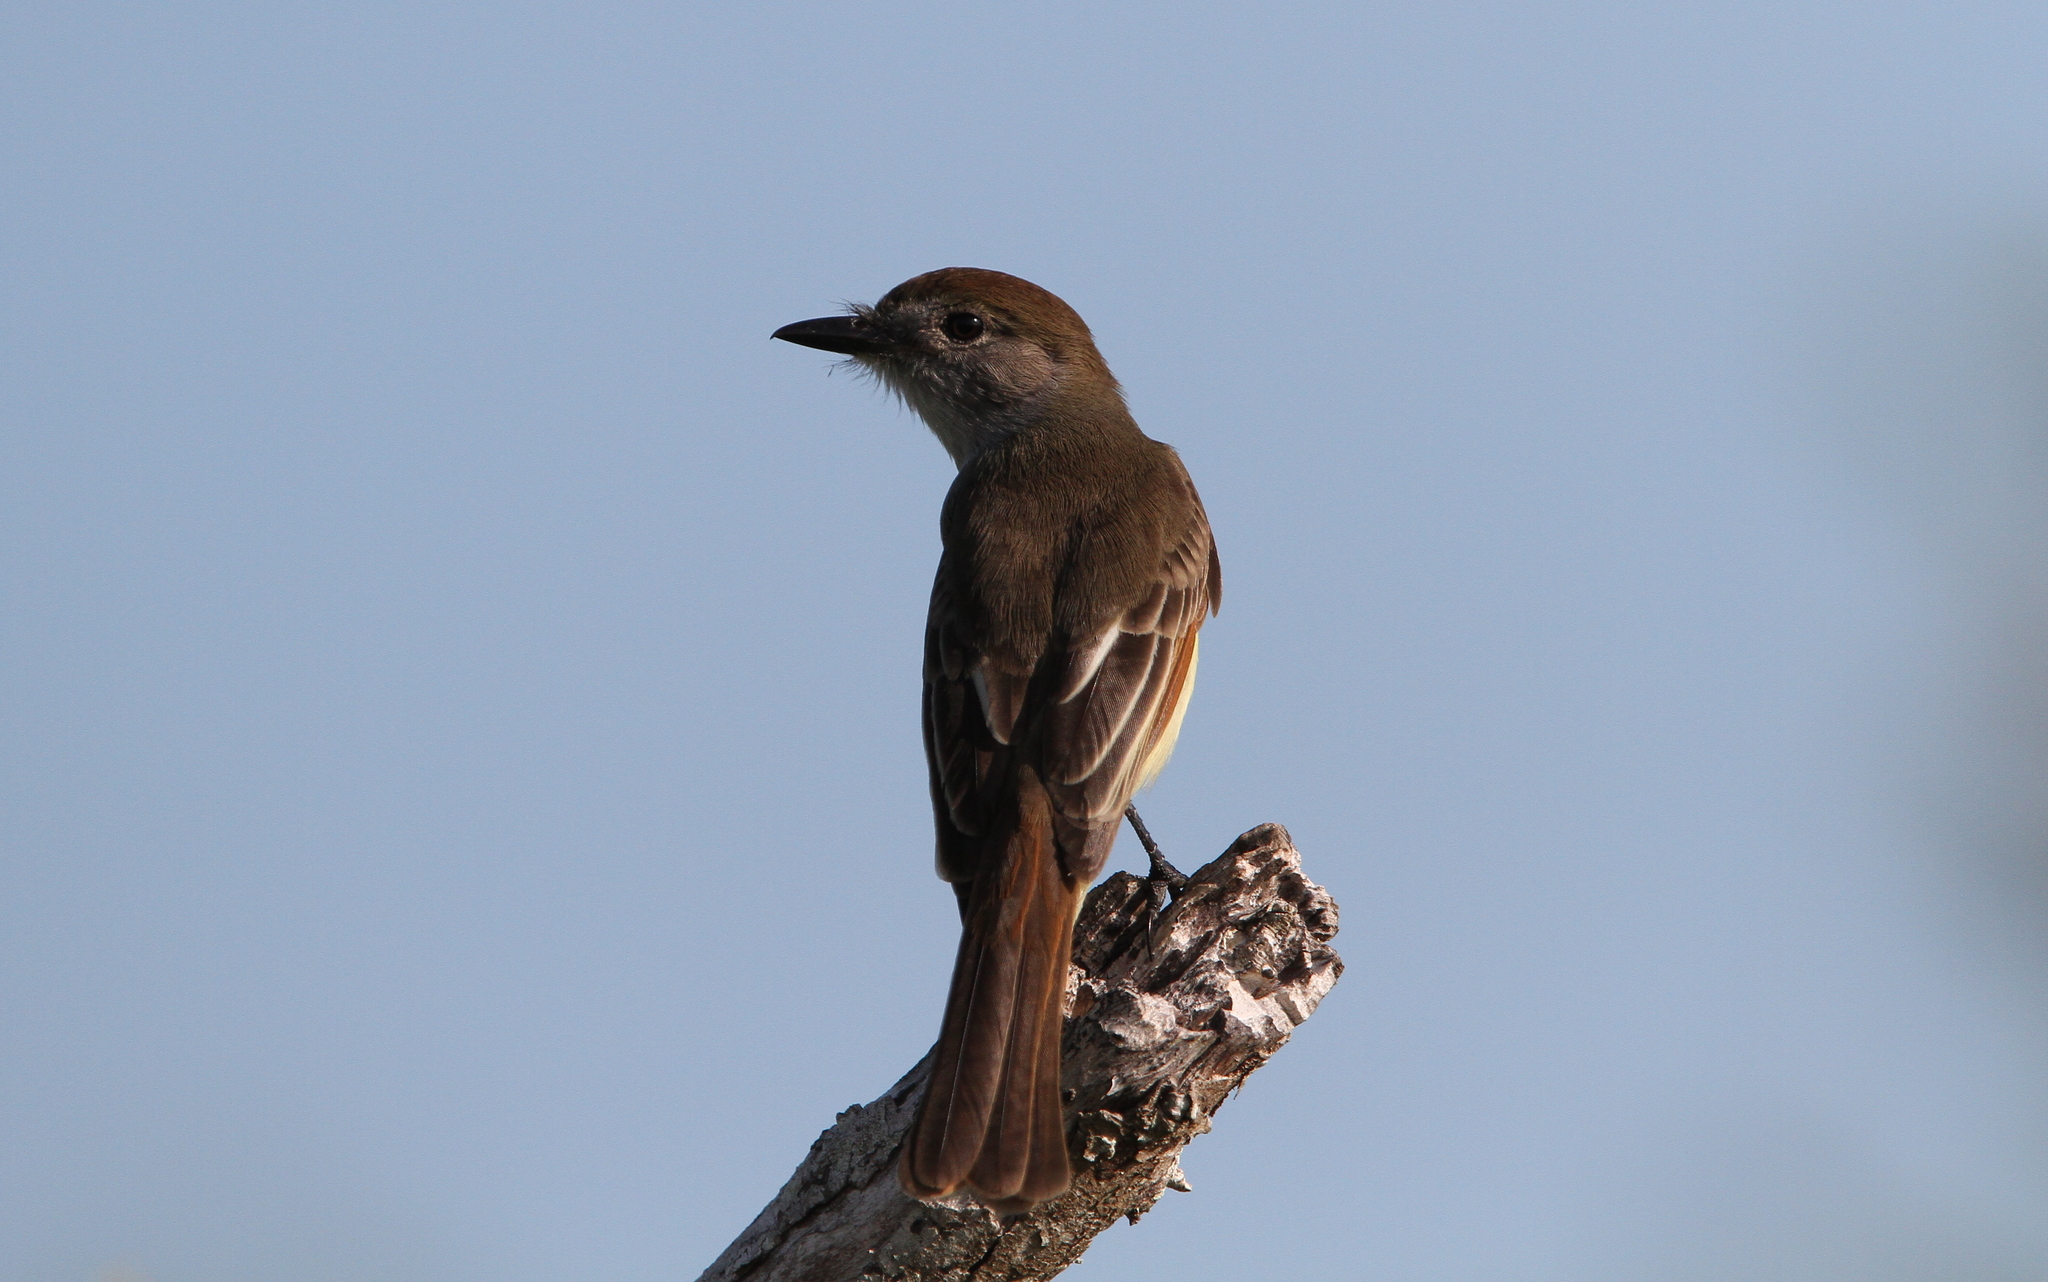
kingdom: Animalia
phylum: Chordata
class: Aves
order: Passeriformes
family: Tyrannidae
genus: Myiarchus
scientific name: Myiarchus yucatanensis
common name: Yucatan flycatcher
